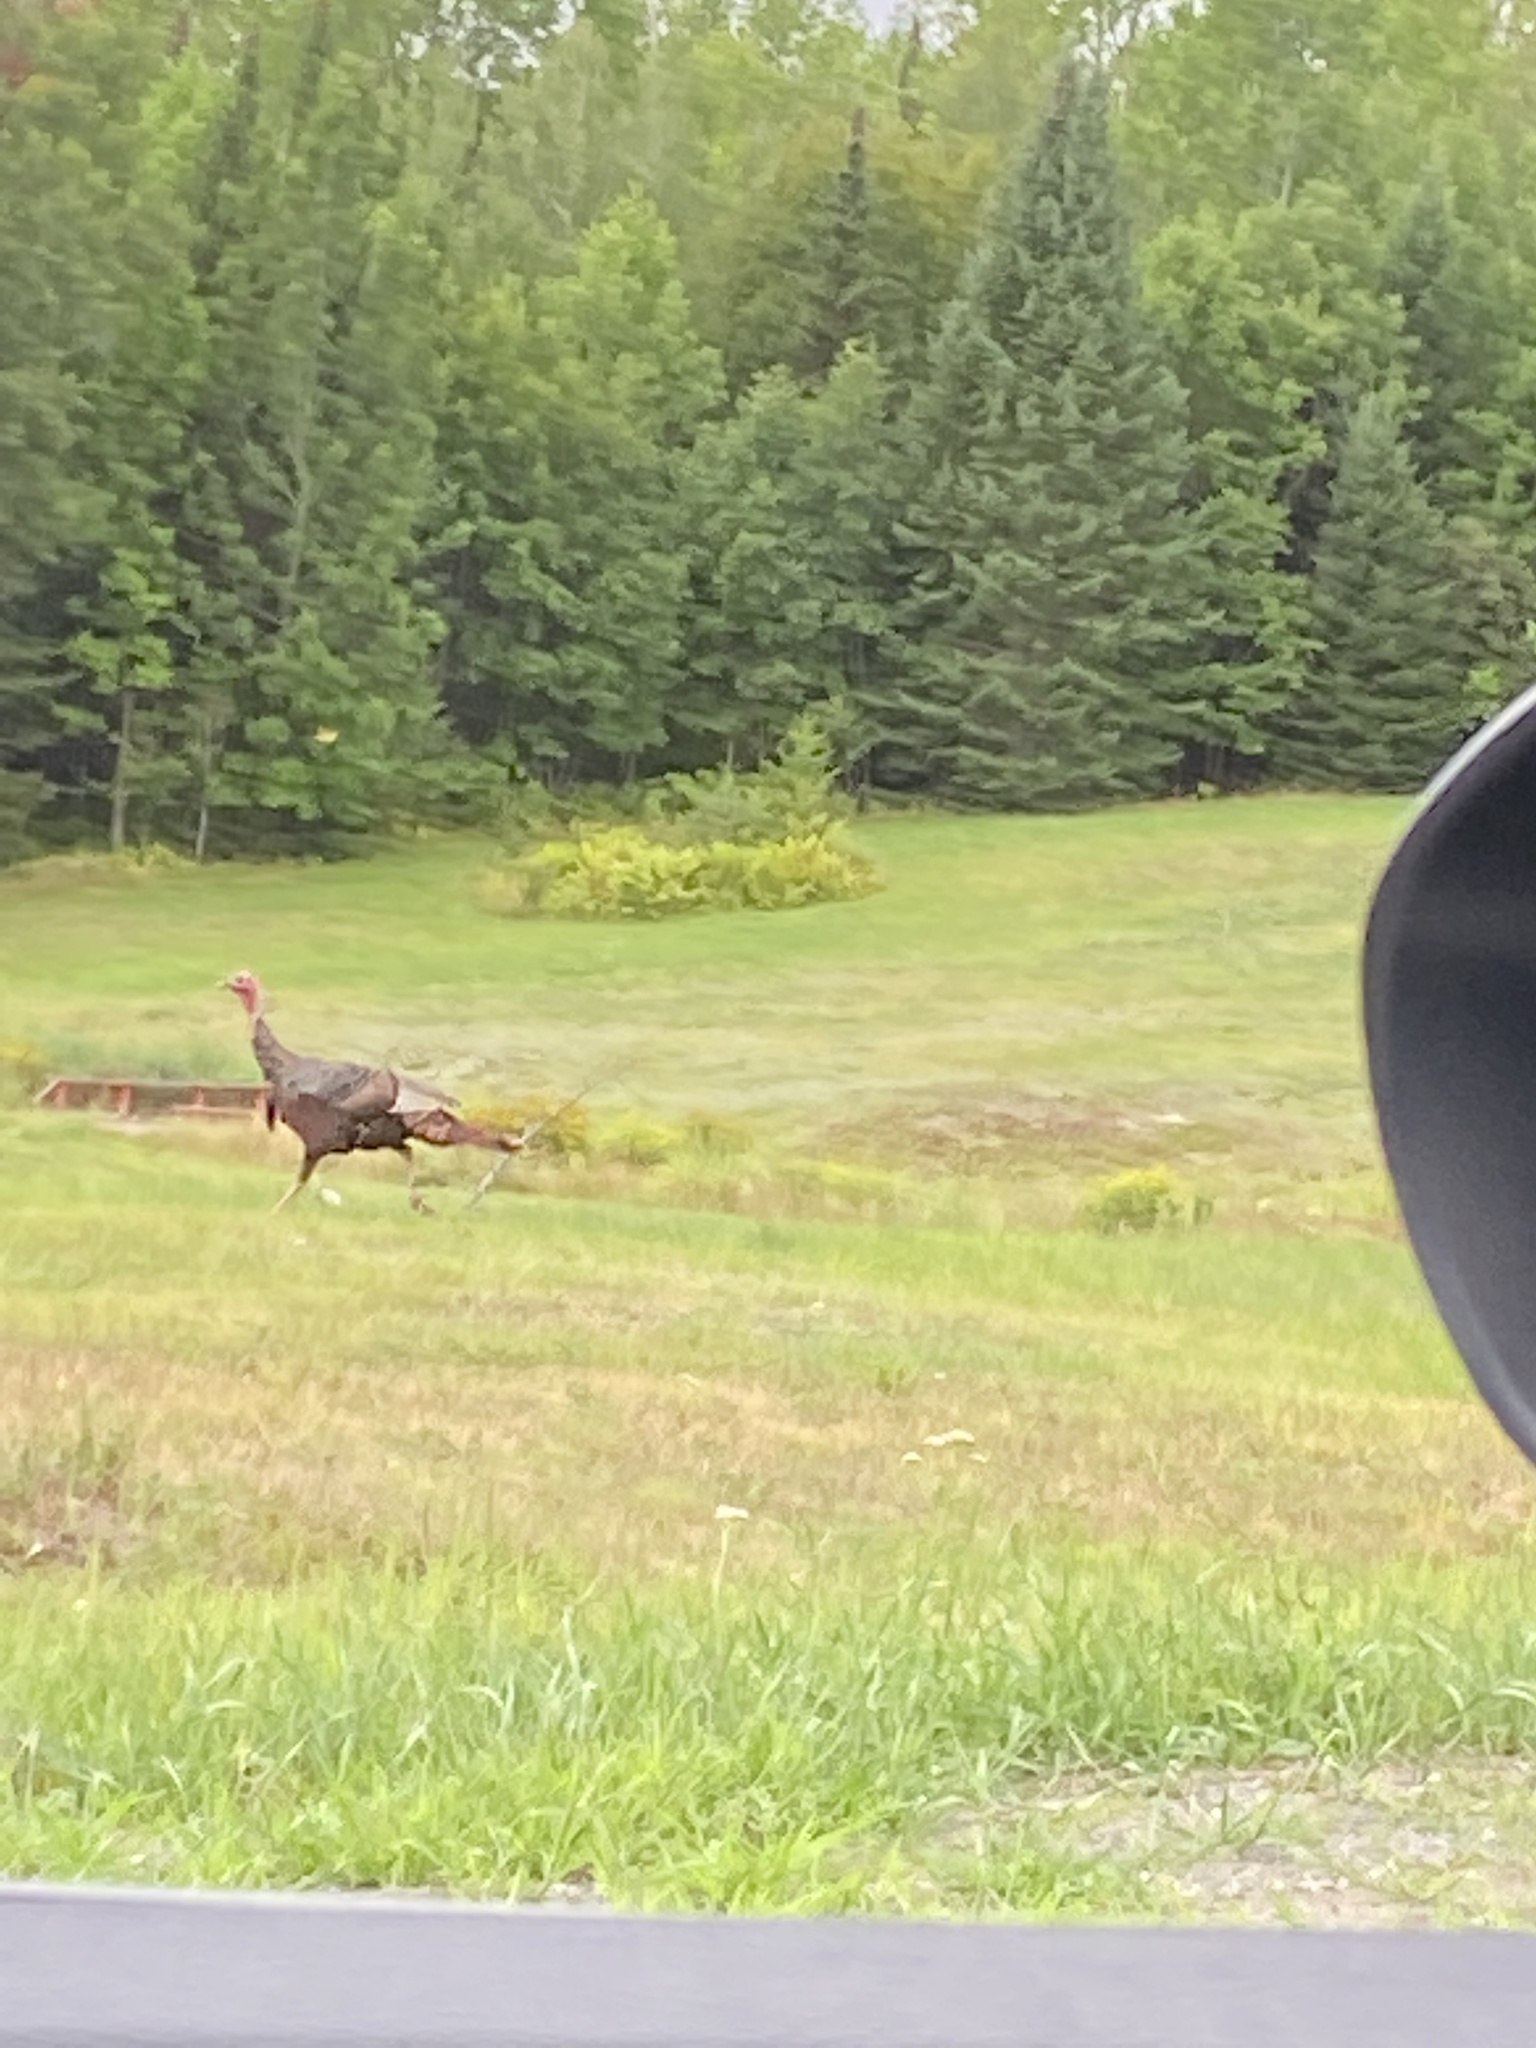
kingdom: Animalia
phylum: Chordata
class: Aves
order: Galliformes
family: Phasianidae
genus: Meleagris
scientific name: Meleagris gallopavo
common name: Wild turkey
